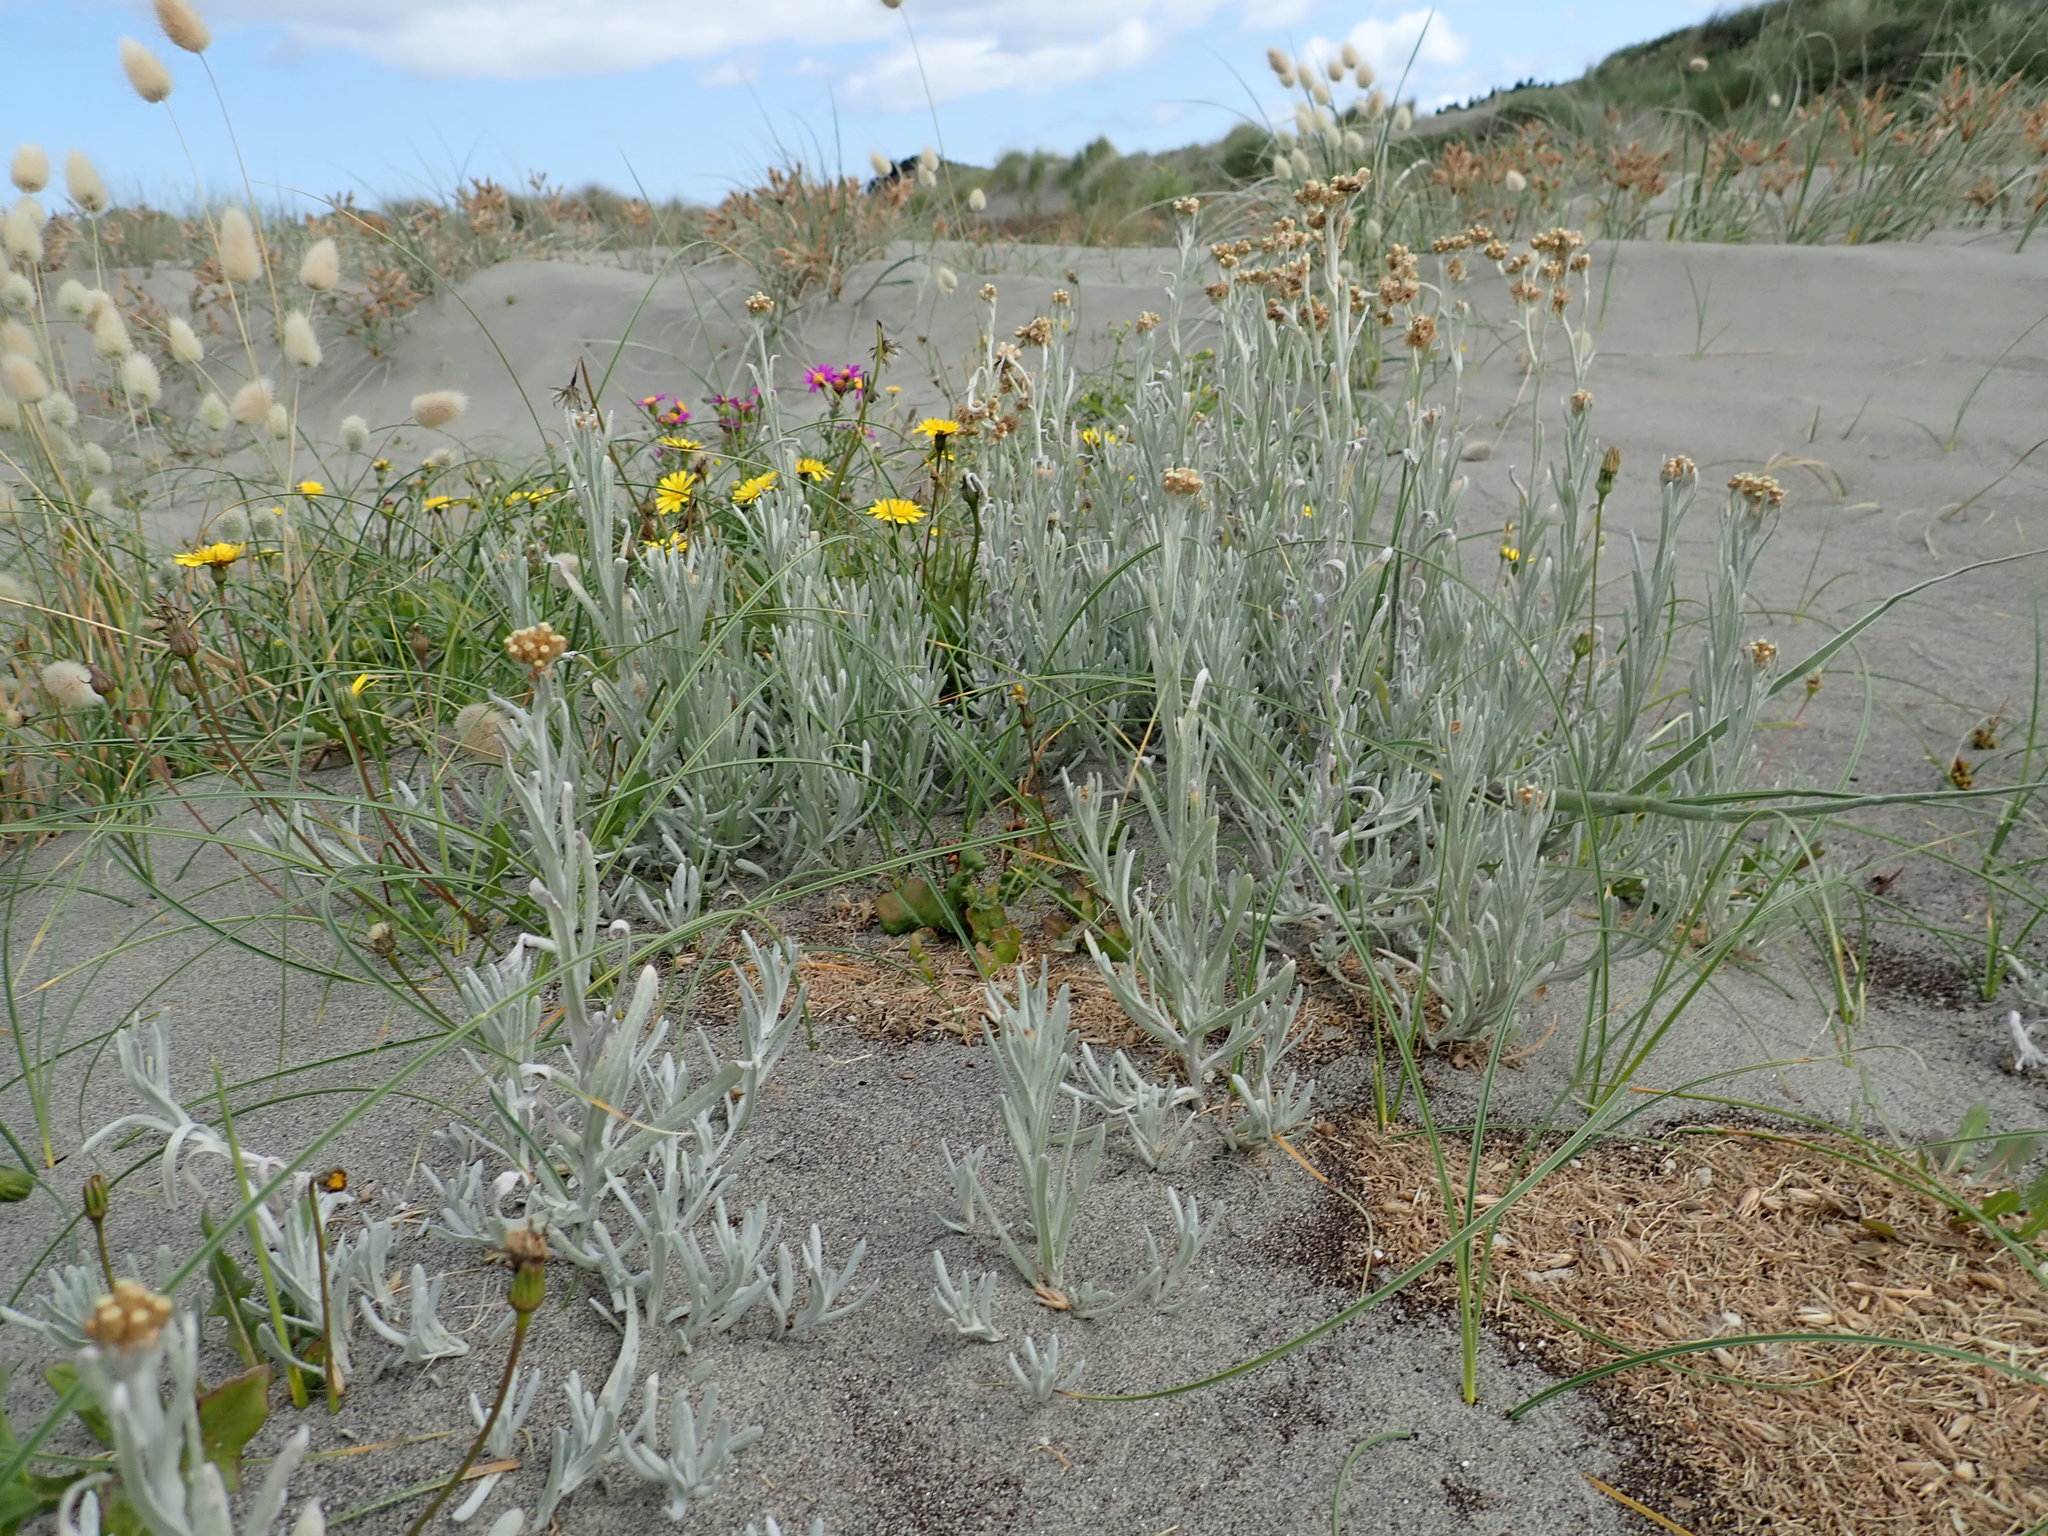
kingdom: Plantae
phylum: Tracheophyta
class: Magnoliopsida
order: Asterales
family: Asteraceae
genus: Helichrysum
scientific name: Helichrysum luteoalbum
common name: Daisy
